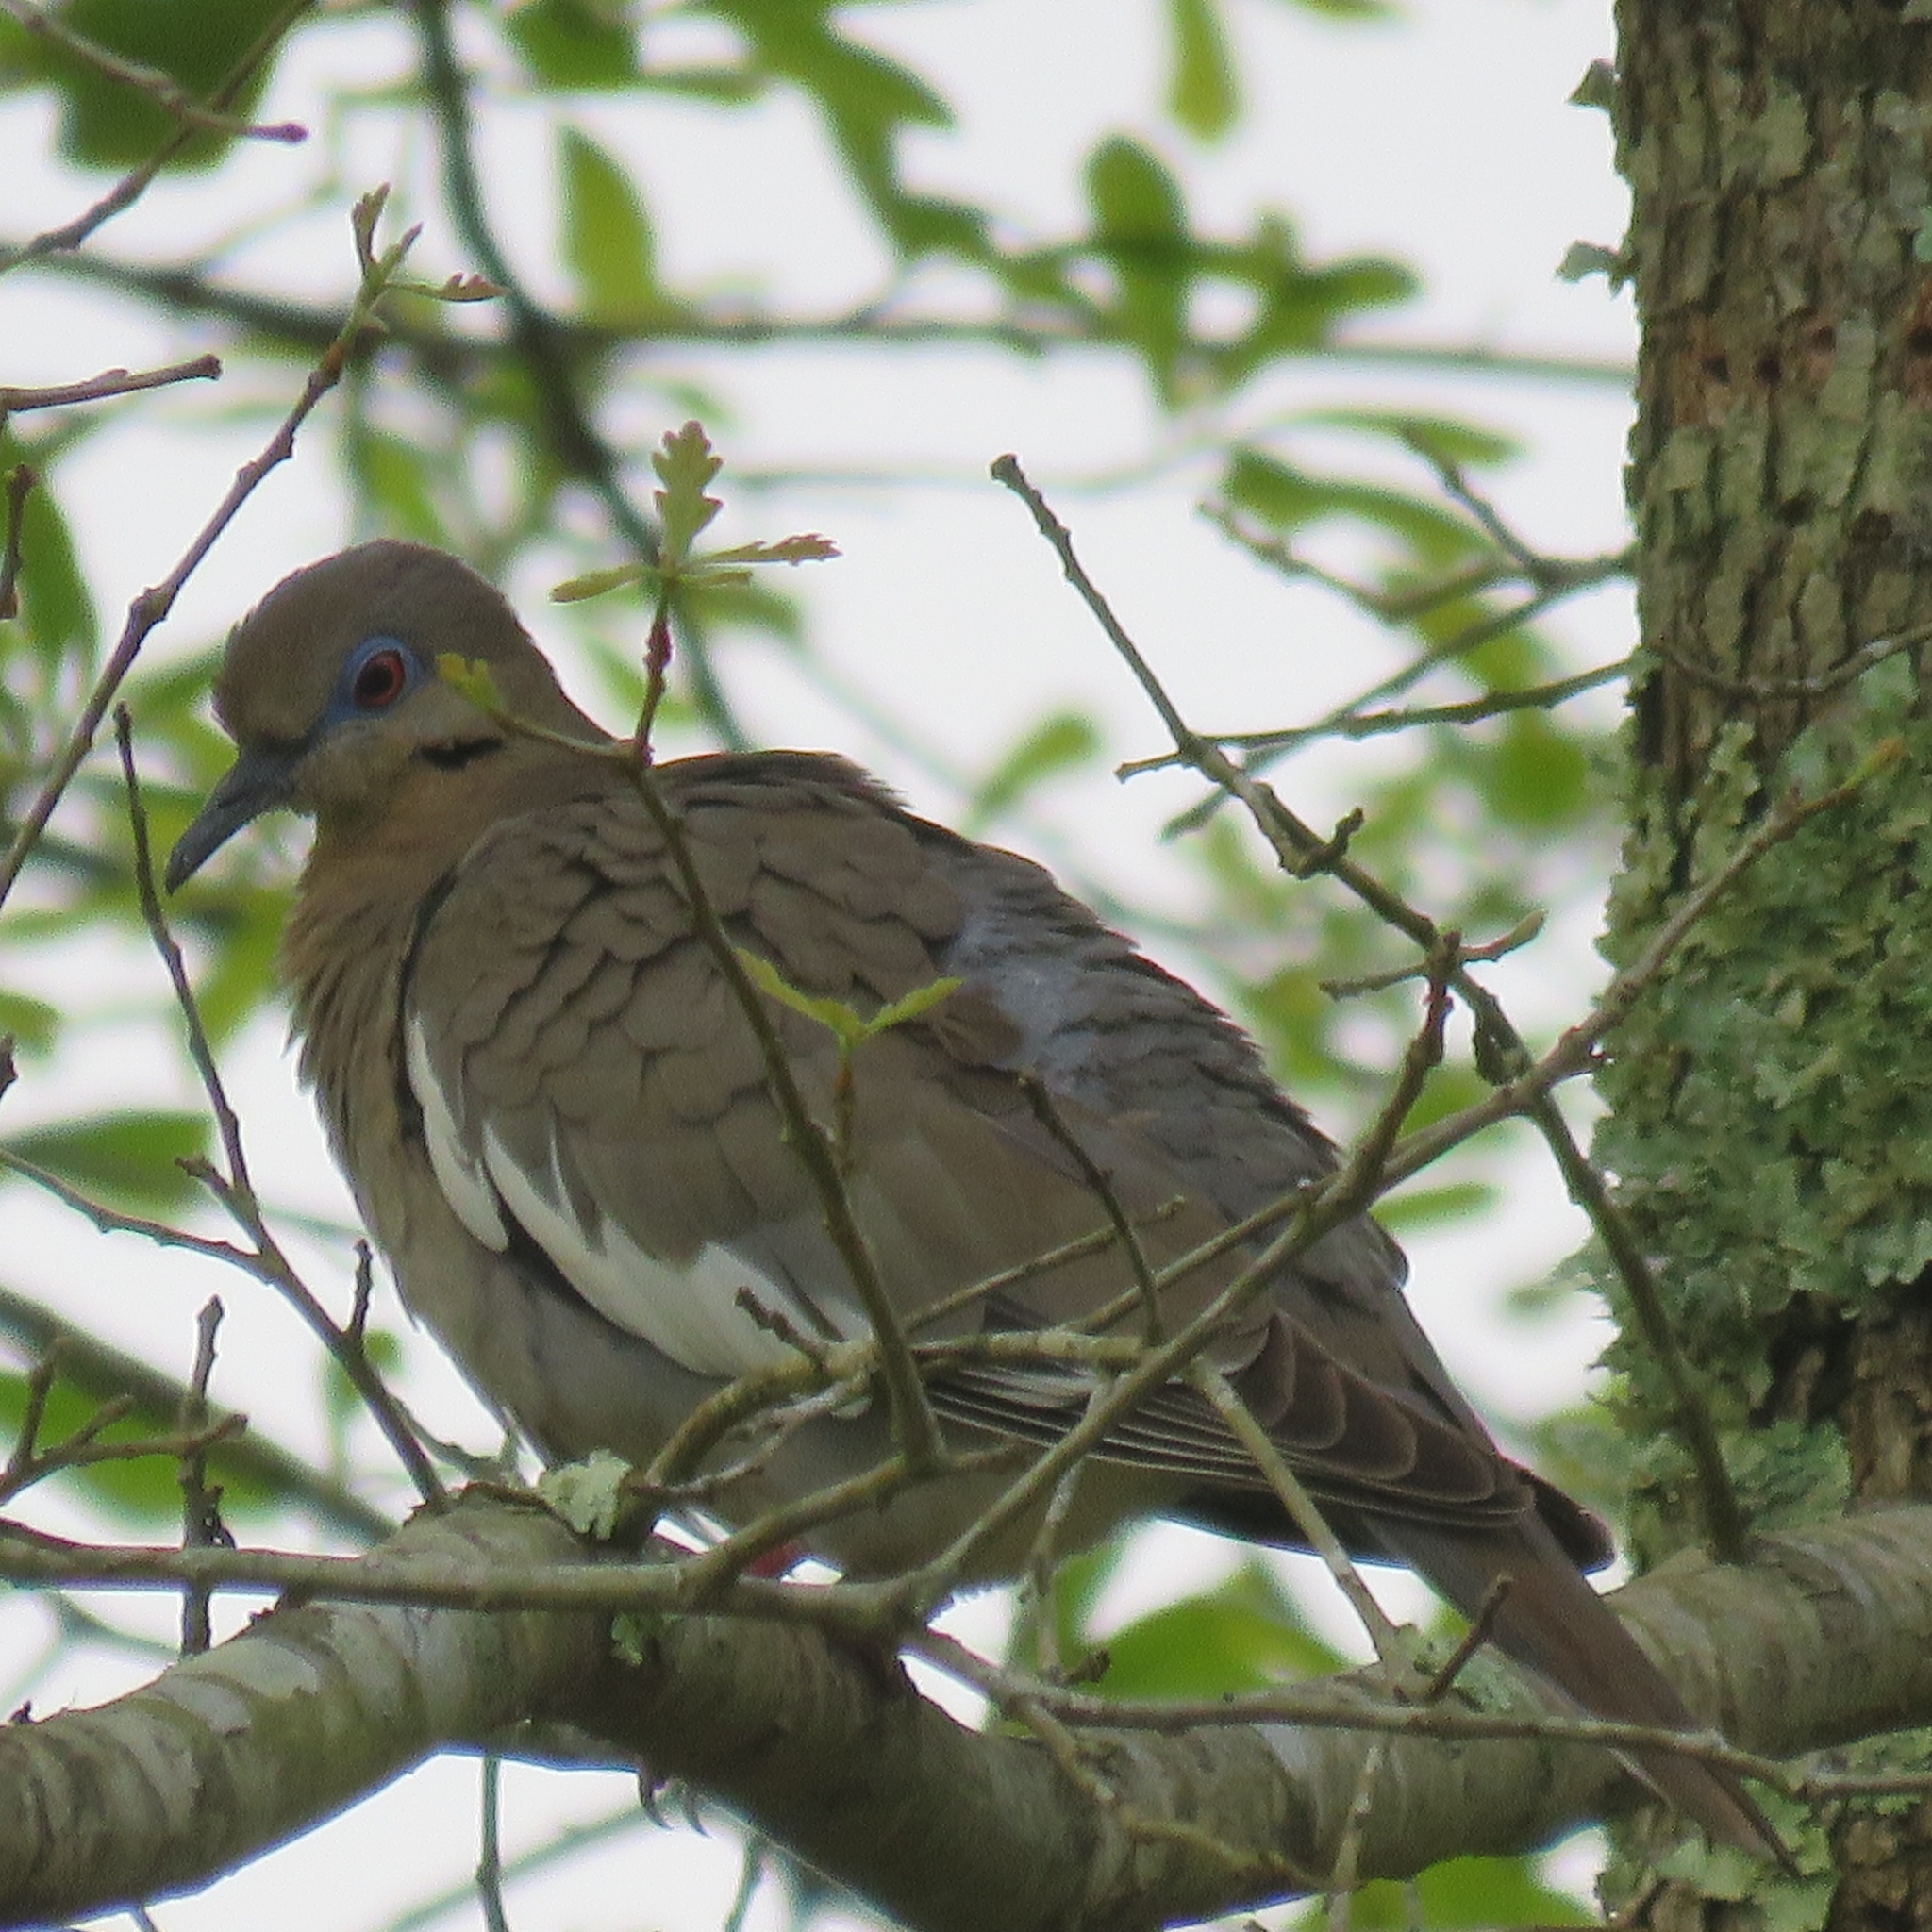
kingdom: Animalia
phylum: Chordata
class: Aves
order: Columbiformes
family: Columbidae
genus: Zenaida
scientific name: Zenaida asiatica
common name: White-winged dove
